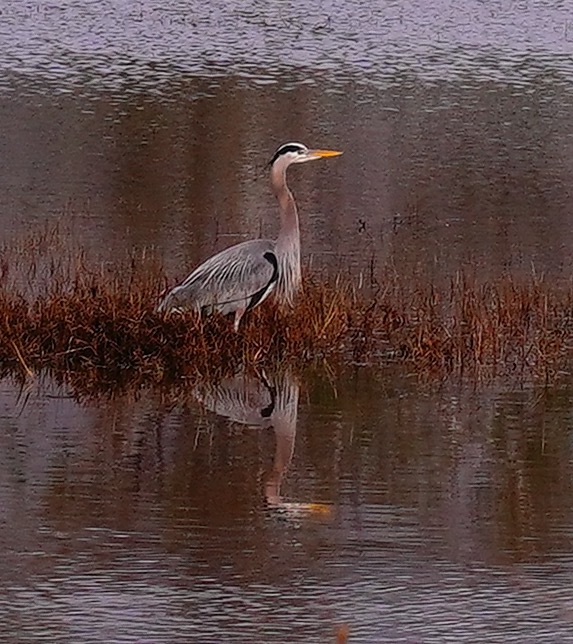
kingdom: Animalia
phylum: Chordata
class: Aves
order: Pelecaniformes
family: Ardeidae
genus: Ardea
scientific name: Ardea herodias
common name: Great blue heron
